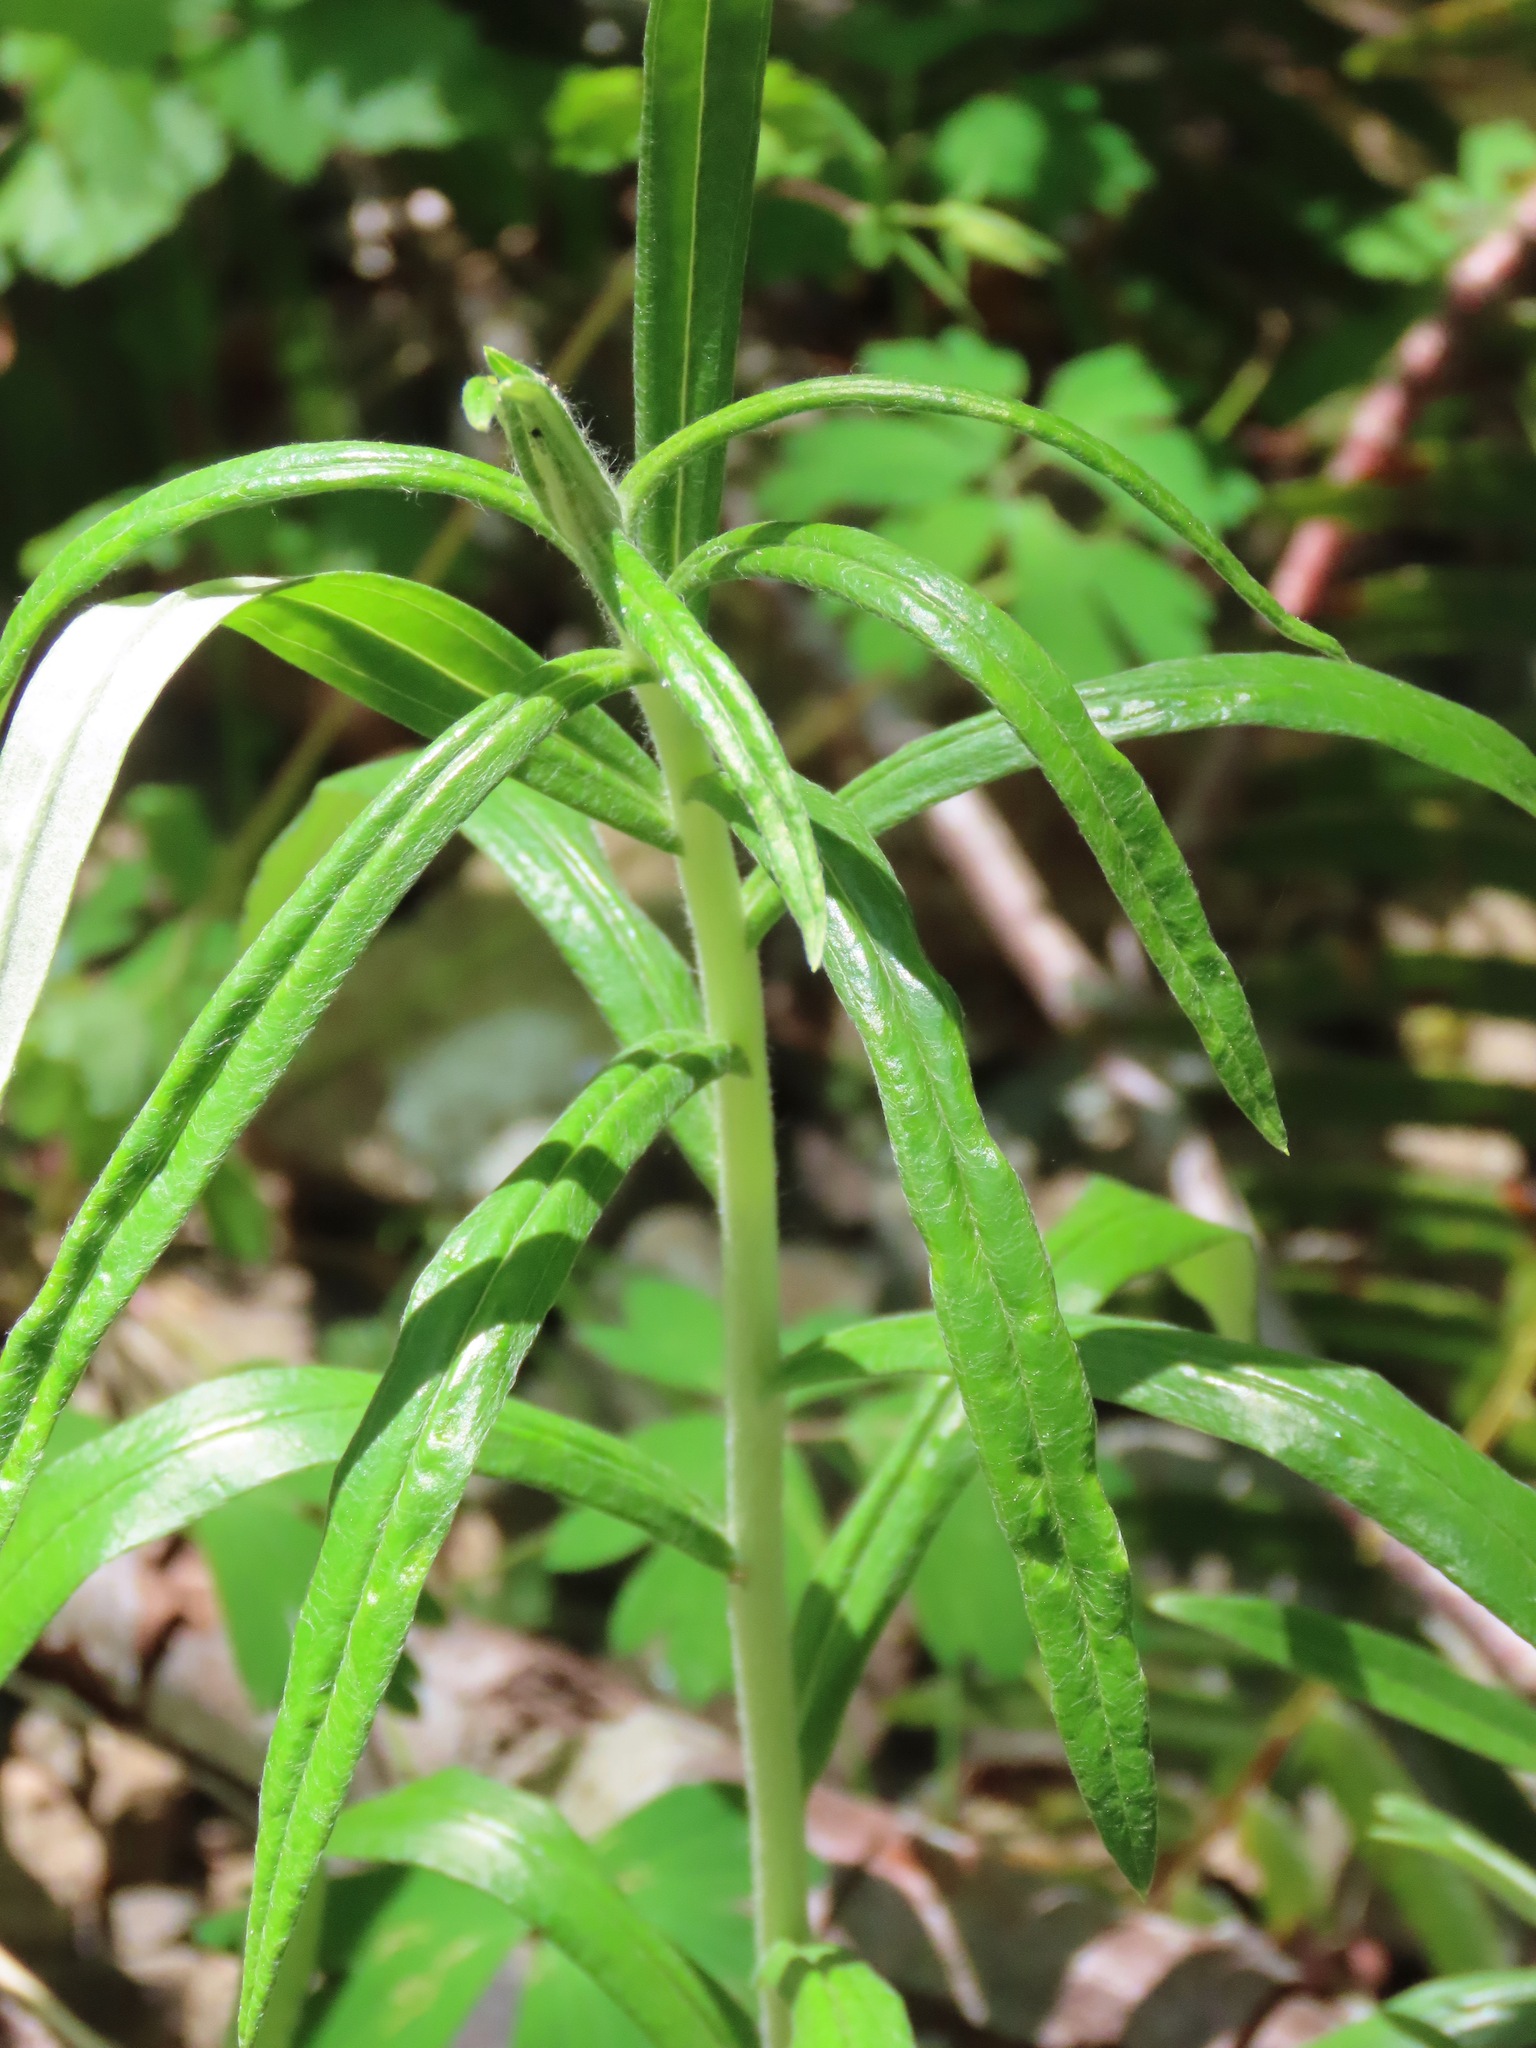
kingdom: Plantae
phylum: Tracheophyta
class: Magnoliopsida
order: Asterales
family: Asteraceae
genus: Anaphalis
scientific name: Anaphalis margaritacea
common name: Pearly everlasting
